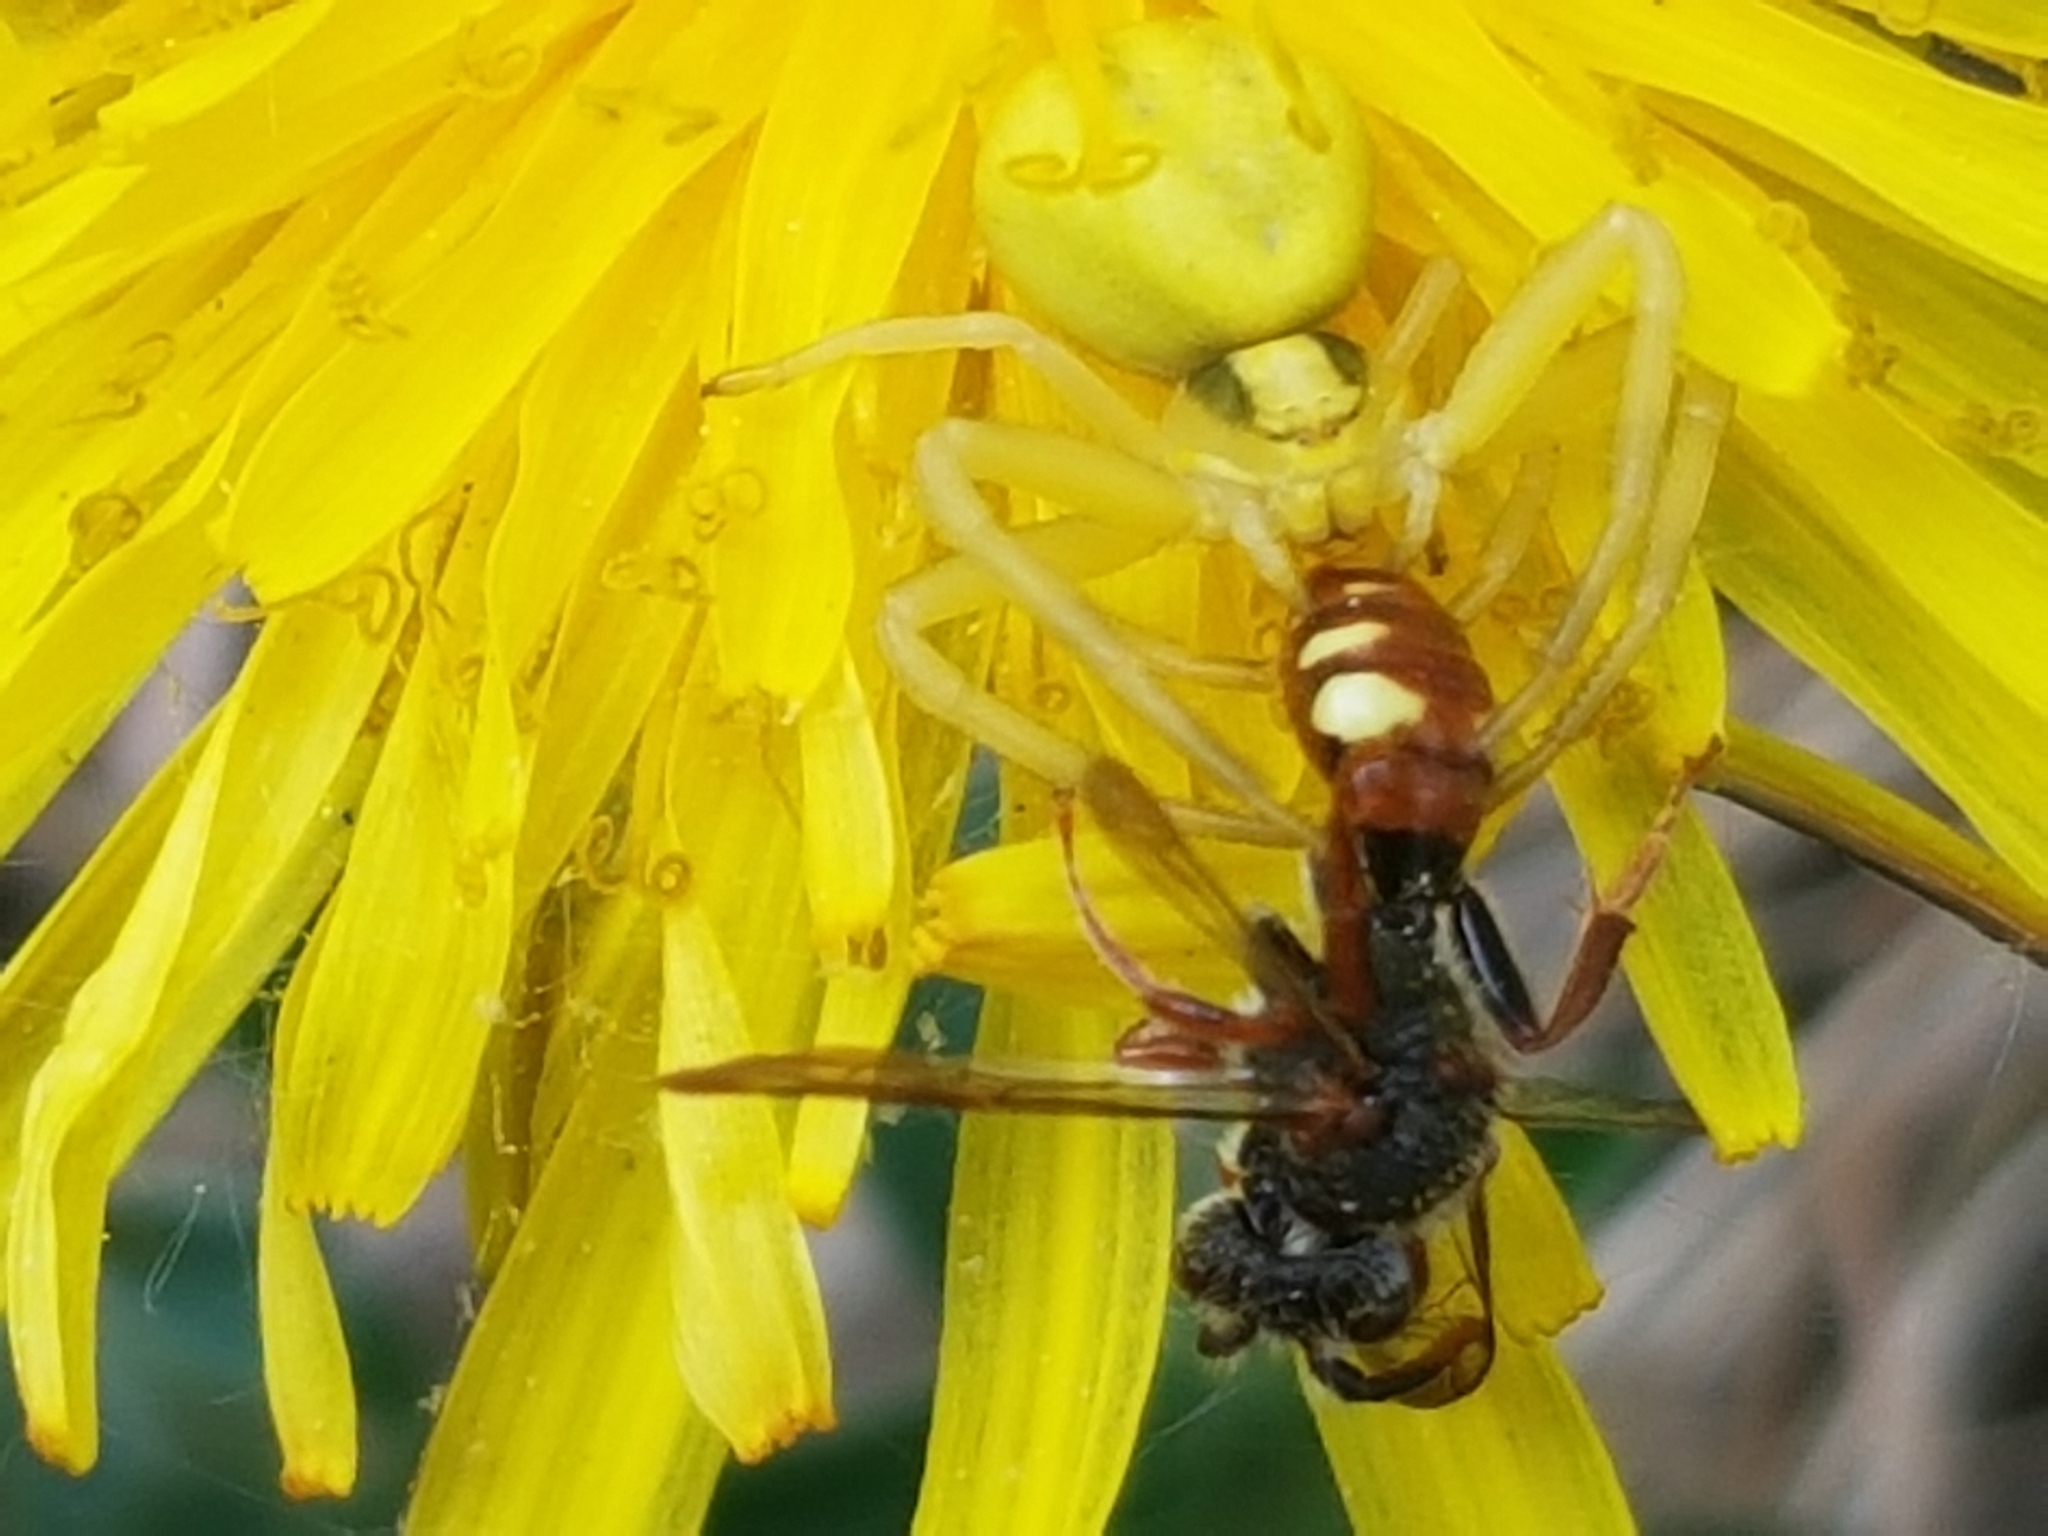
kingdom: Animalia
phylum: Arthropoda
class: Arachnida
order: Araneae
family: Thomisidae
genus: Misumena
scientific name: Misumena vatia
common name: Goldenrod crab spider
